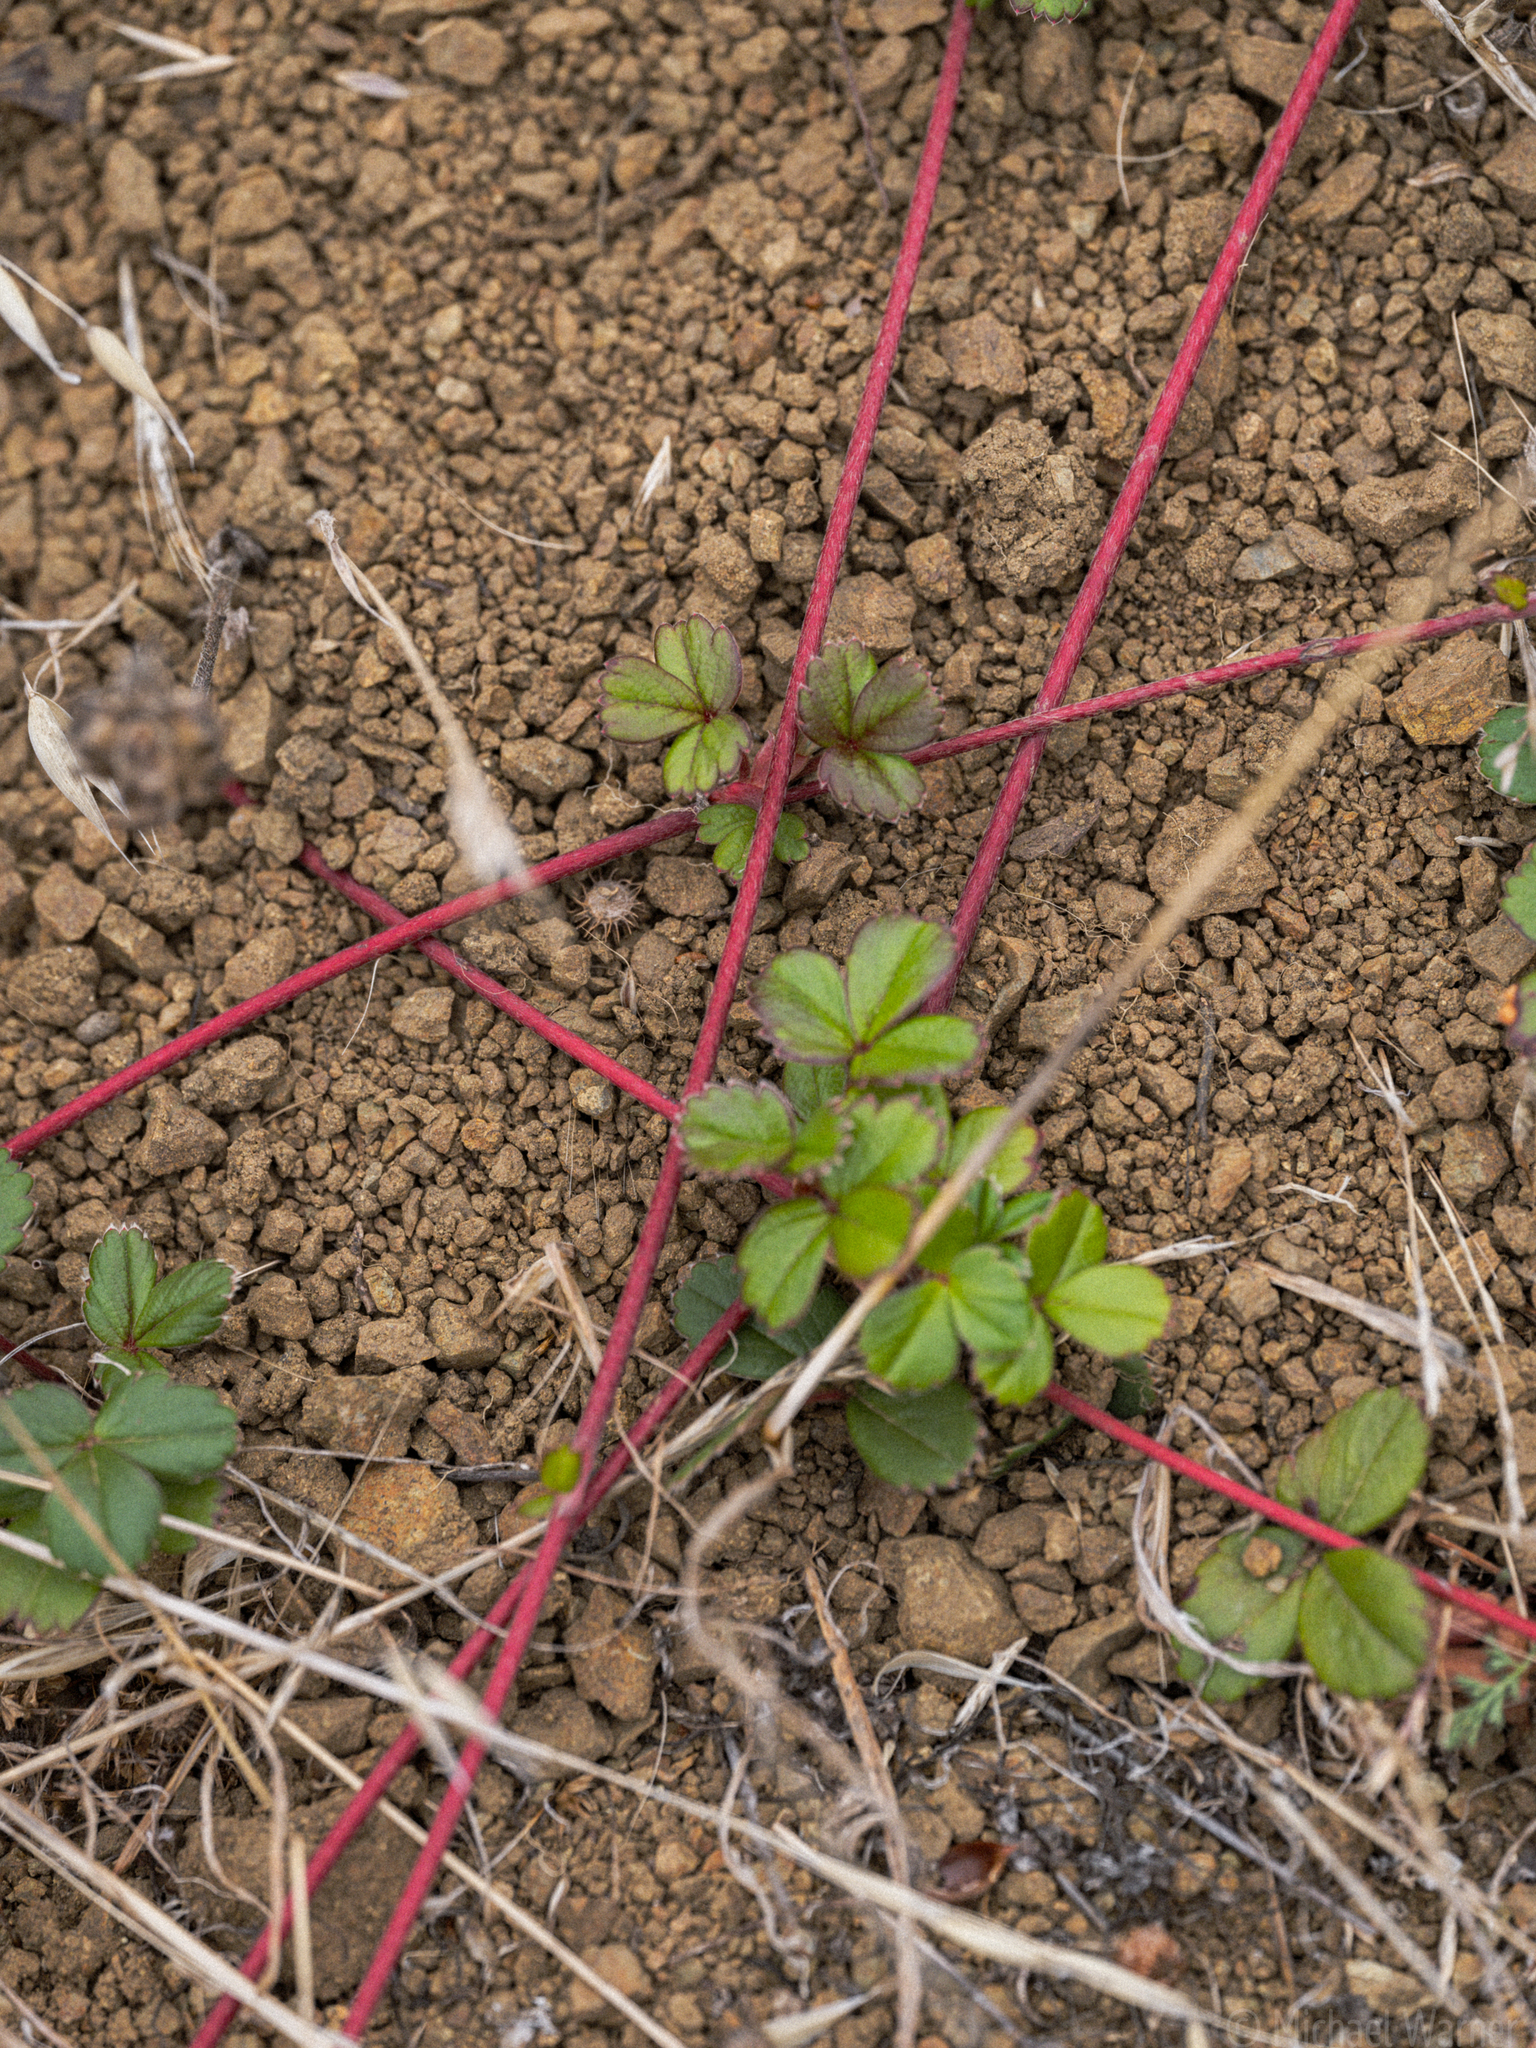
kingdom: Plantae
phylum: Tracheophyta
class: Magnoliopsida
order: Rosales
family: Rosaceae
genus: Fragaria
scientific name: Fragaria chiloensis
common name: Beach strawberry
